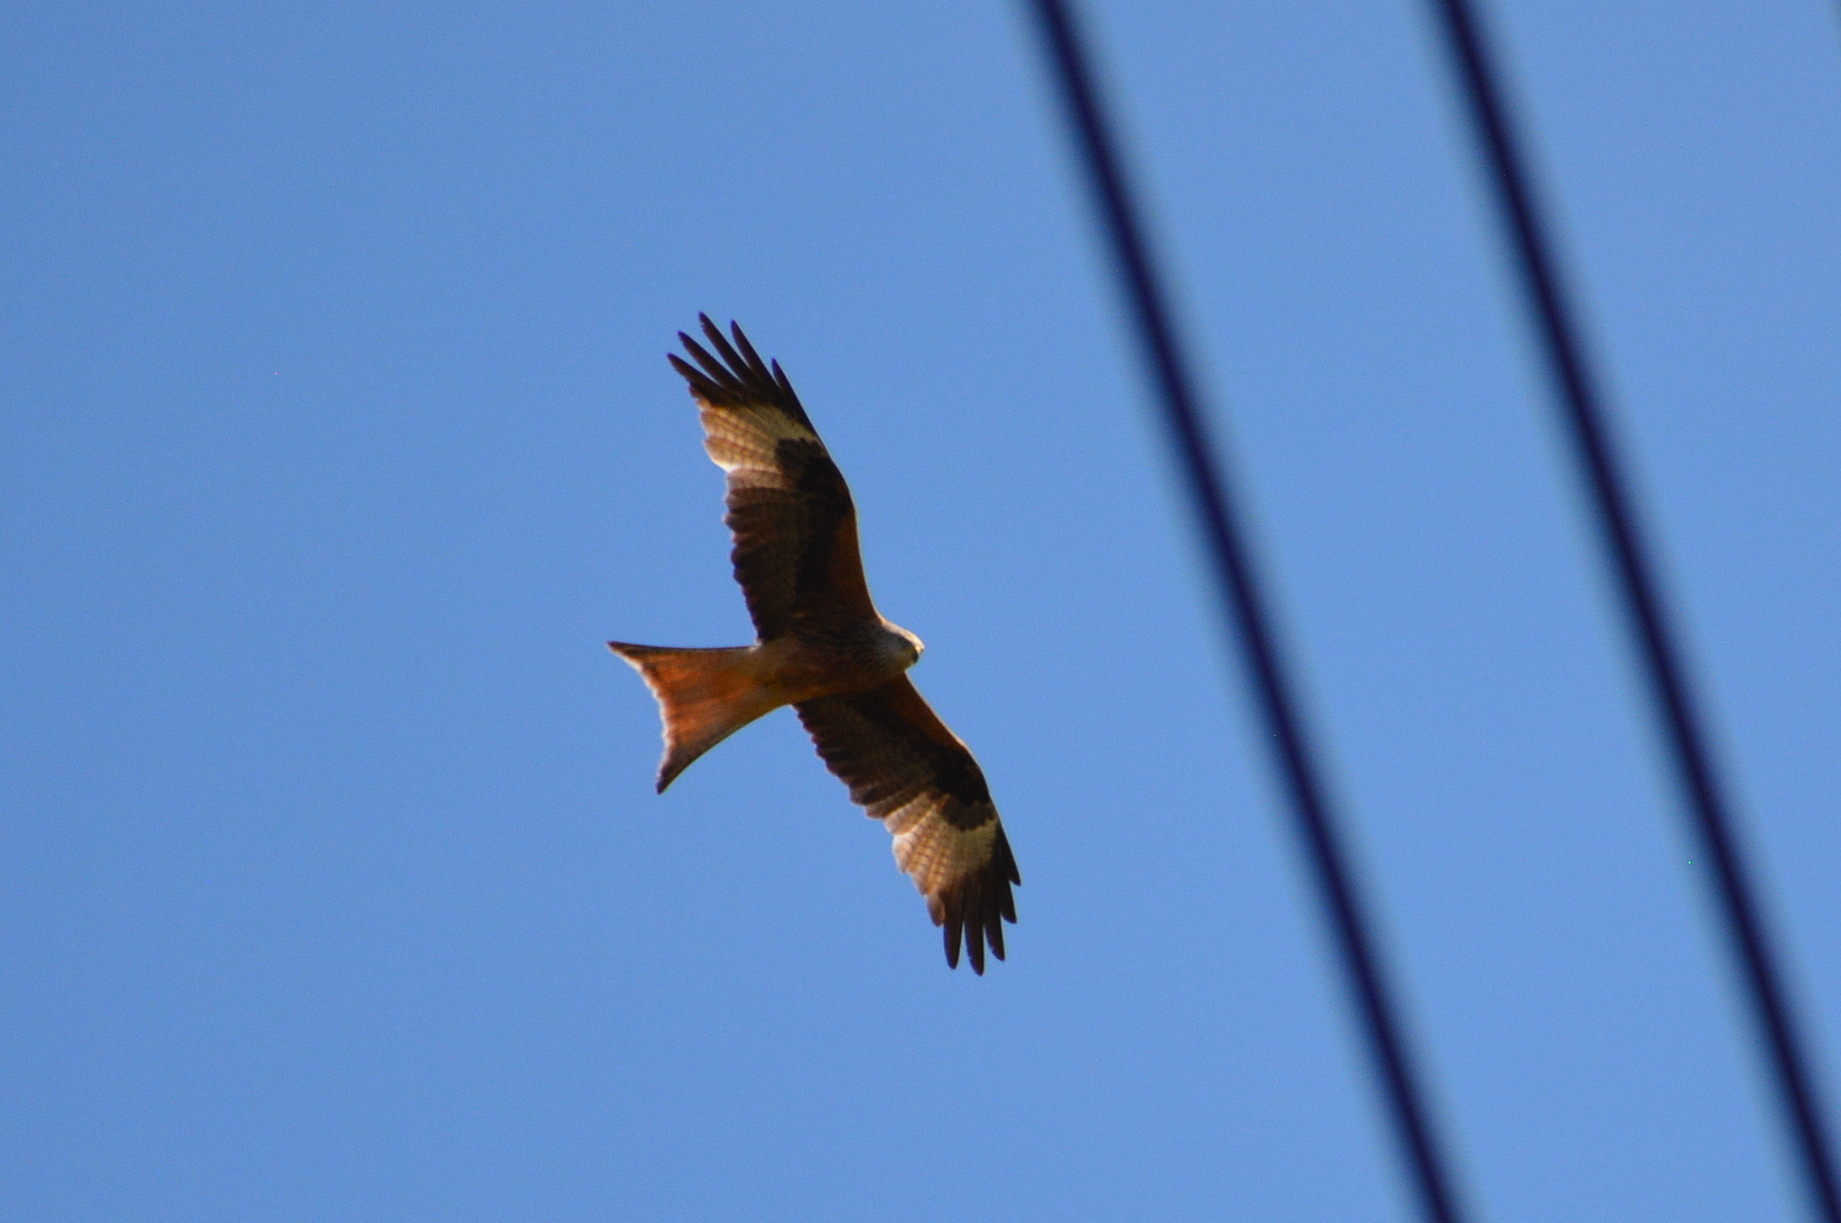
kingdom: Animalia
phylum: Chordata
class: Aves
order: Accipitriformes
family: Accipitridae
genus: Milvus
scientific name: Milvus milvus
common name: Red kite
